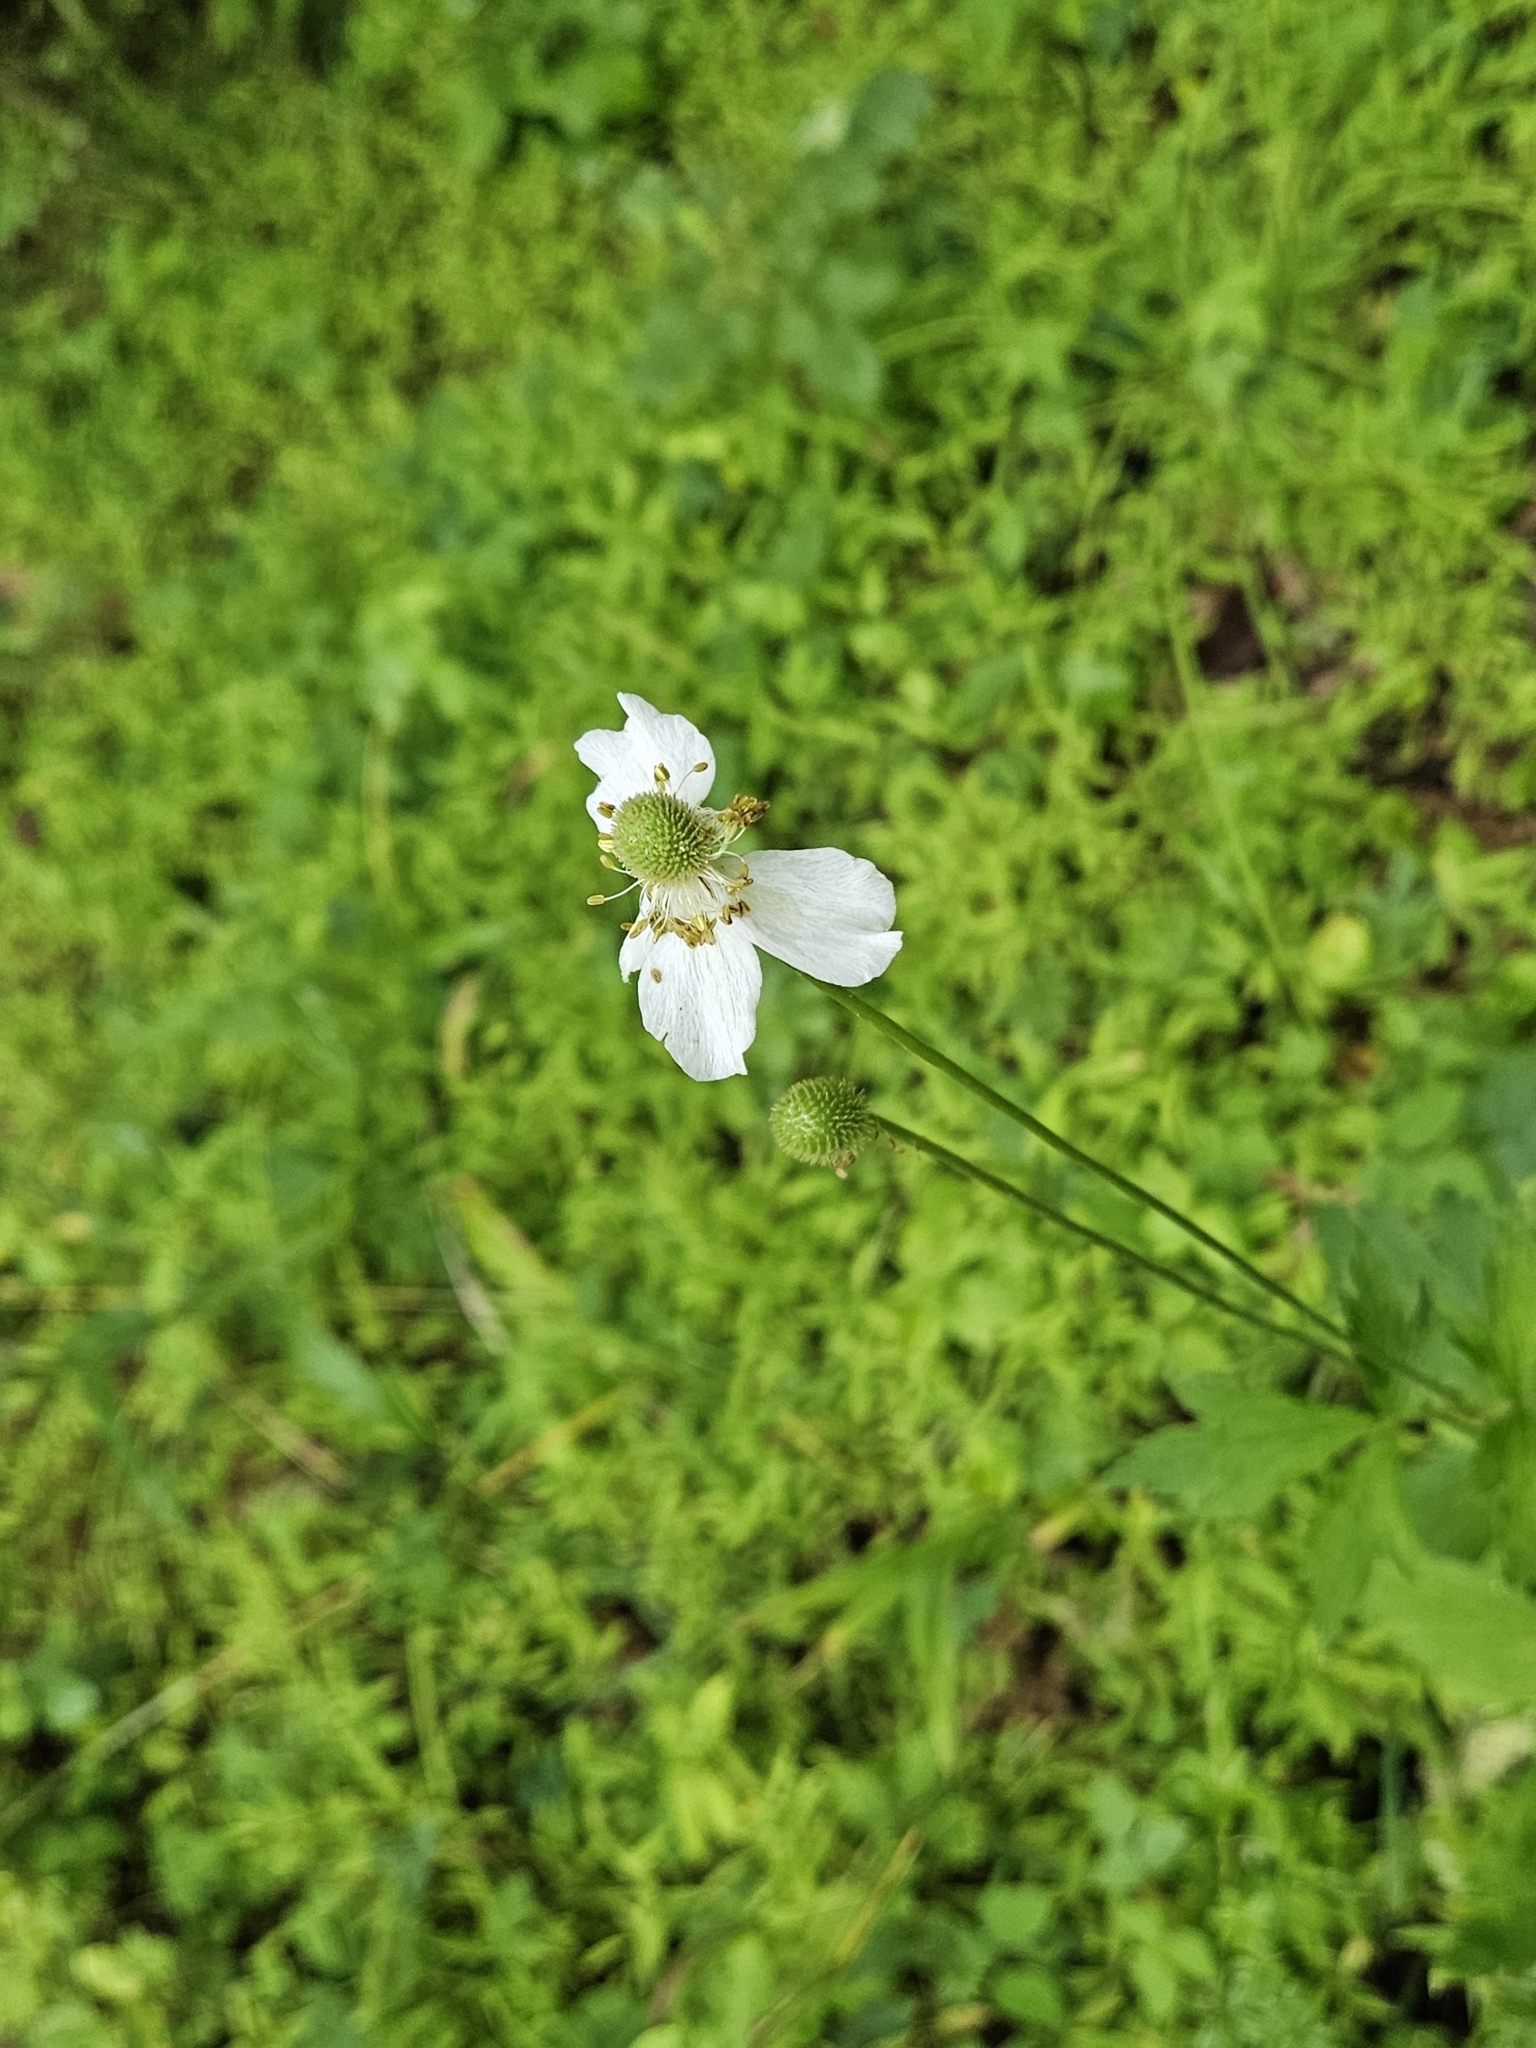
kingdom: Plantae
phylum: Tracheophyta
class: Magnoliopsida
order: Ranunculales
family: Ranunculaceae
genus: Anemone
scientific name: Anemone virginiana
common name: Tall anemone
